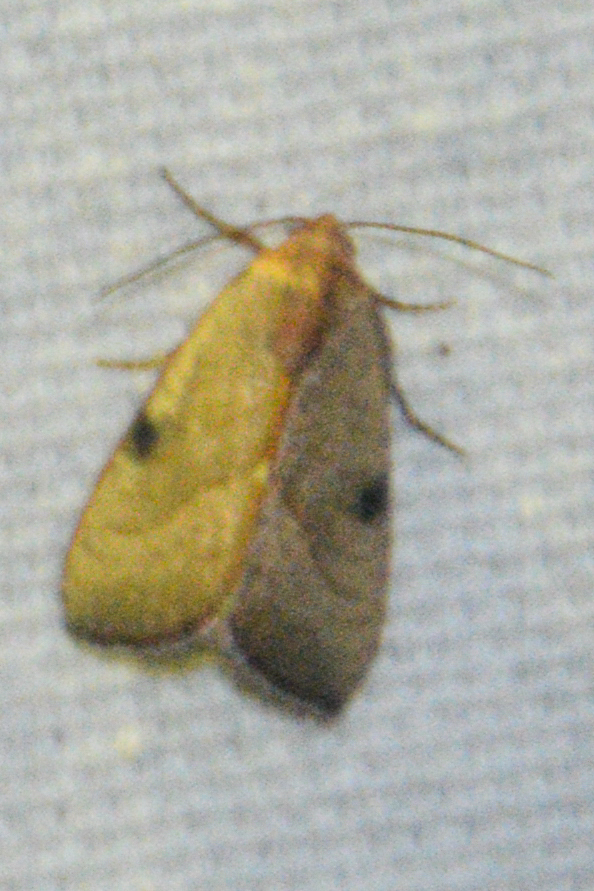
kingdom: Animalia
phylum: Arthropoda
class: Insecta
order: Lepidoptera
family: Noctuidae
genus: Galgula
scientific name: Galgula partita
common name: Wedgeling
